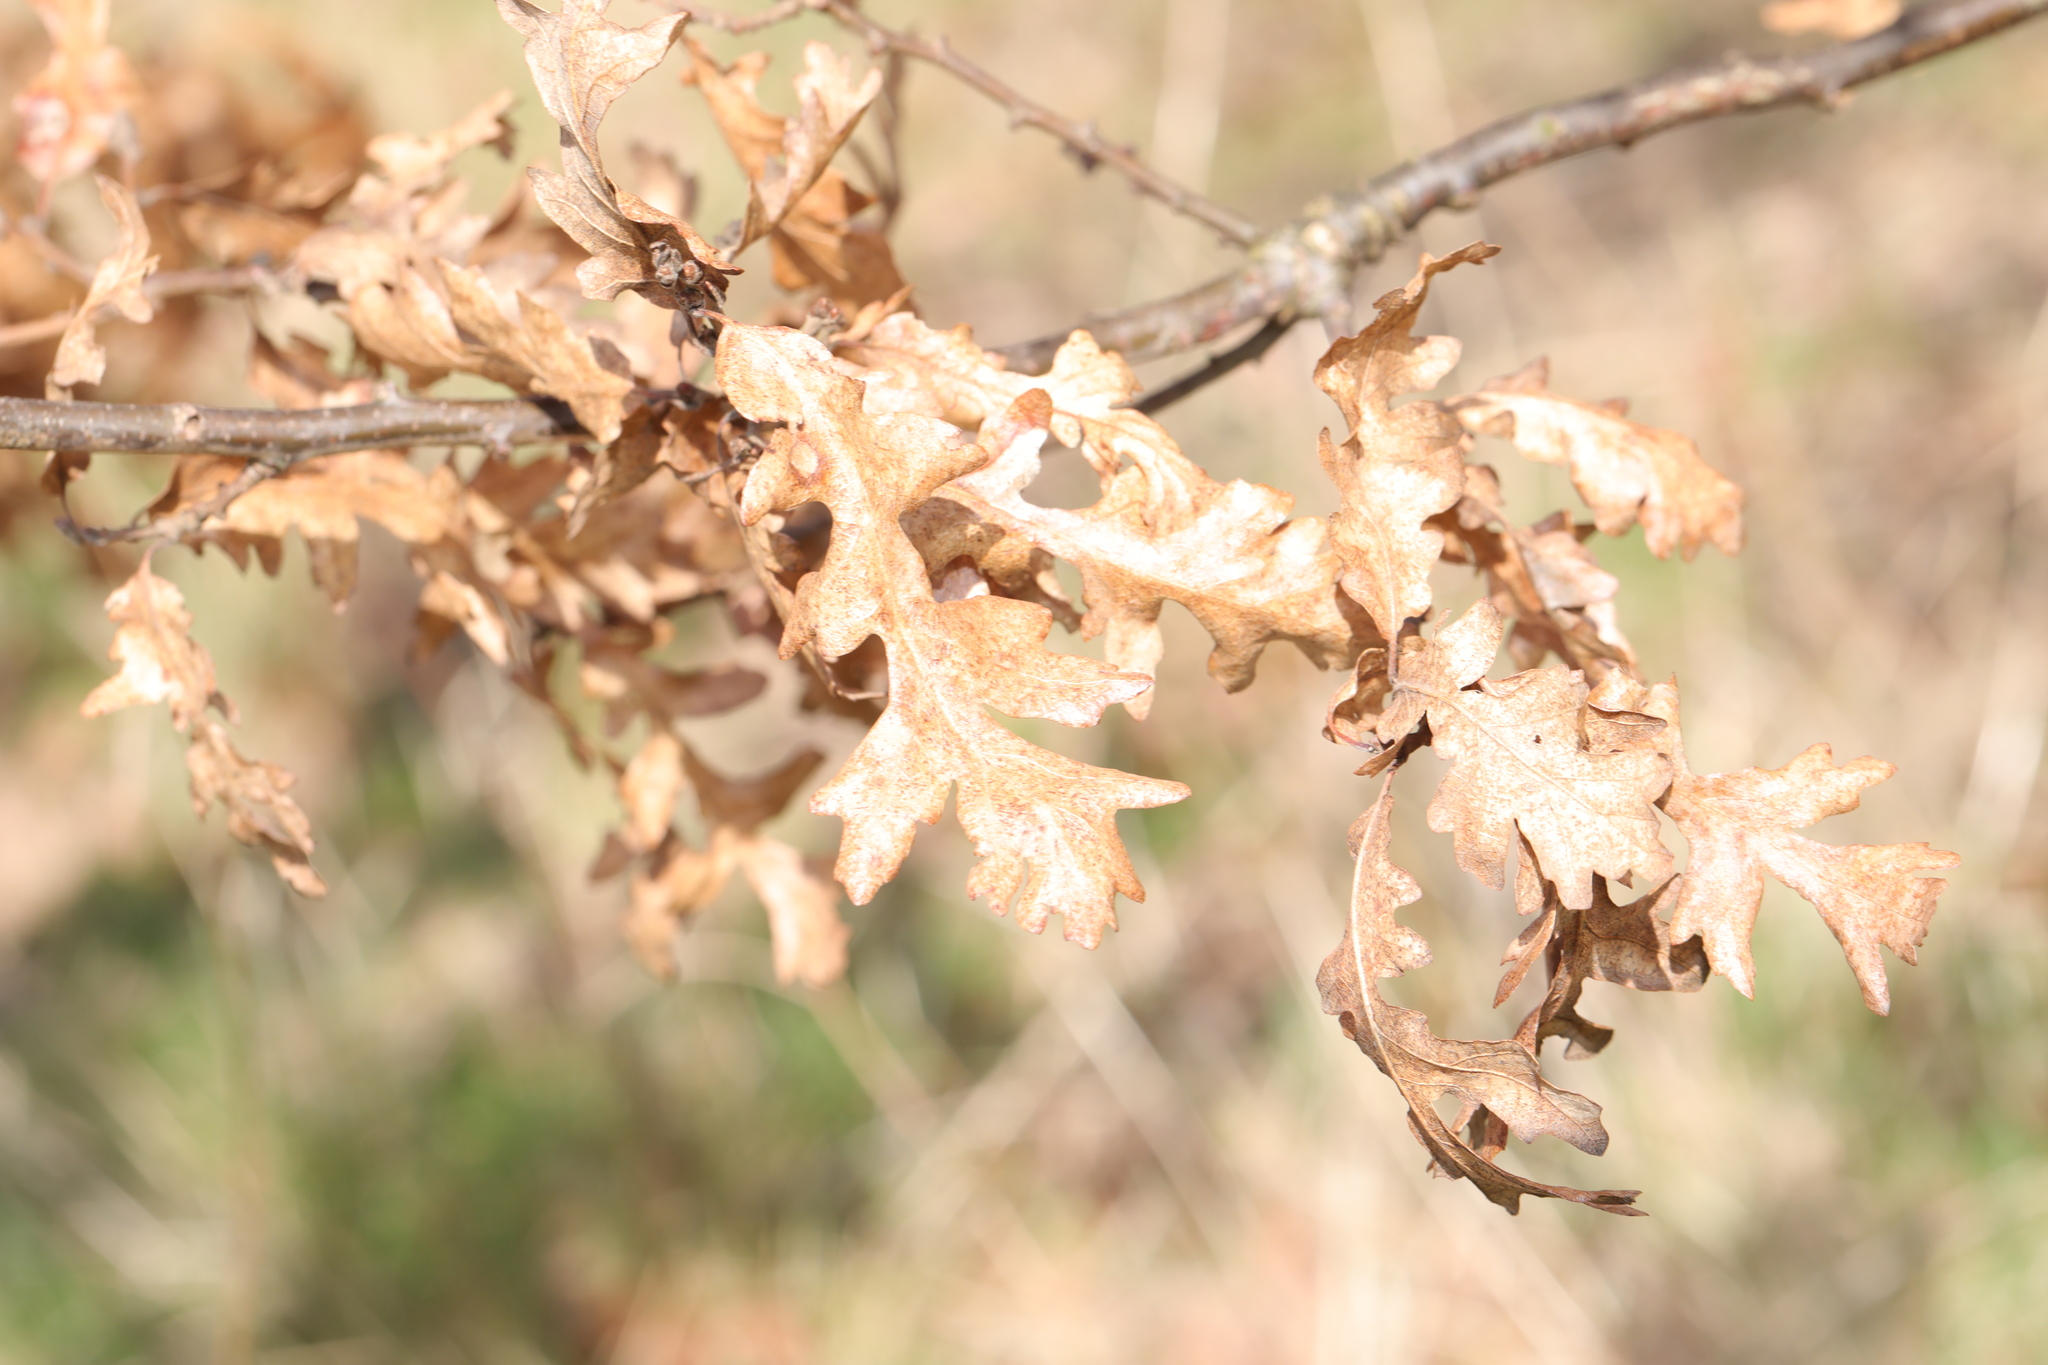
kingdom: Plantae
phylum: Tracheophyta
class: Magnoliopsida
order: Fagales
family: Fagaceae
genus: Quercus
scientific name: Quercus cerris
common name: Turkey oak
